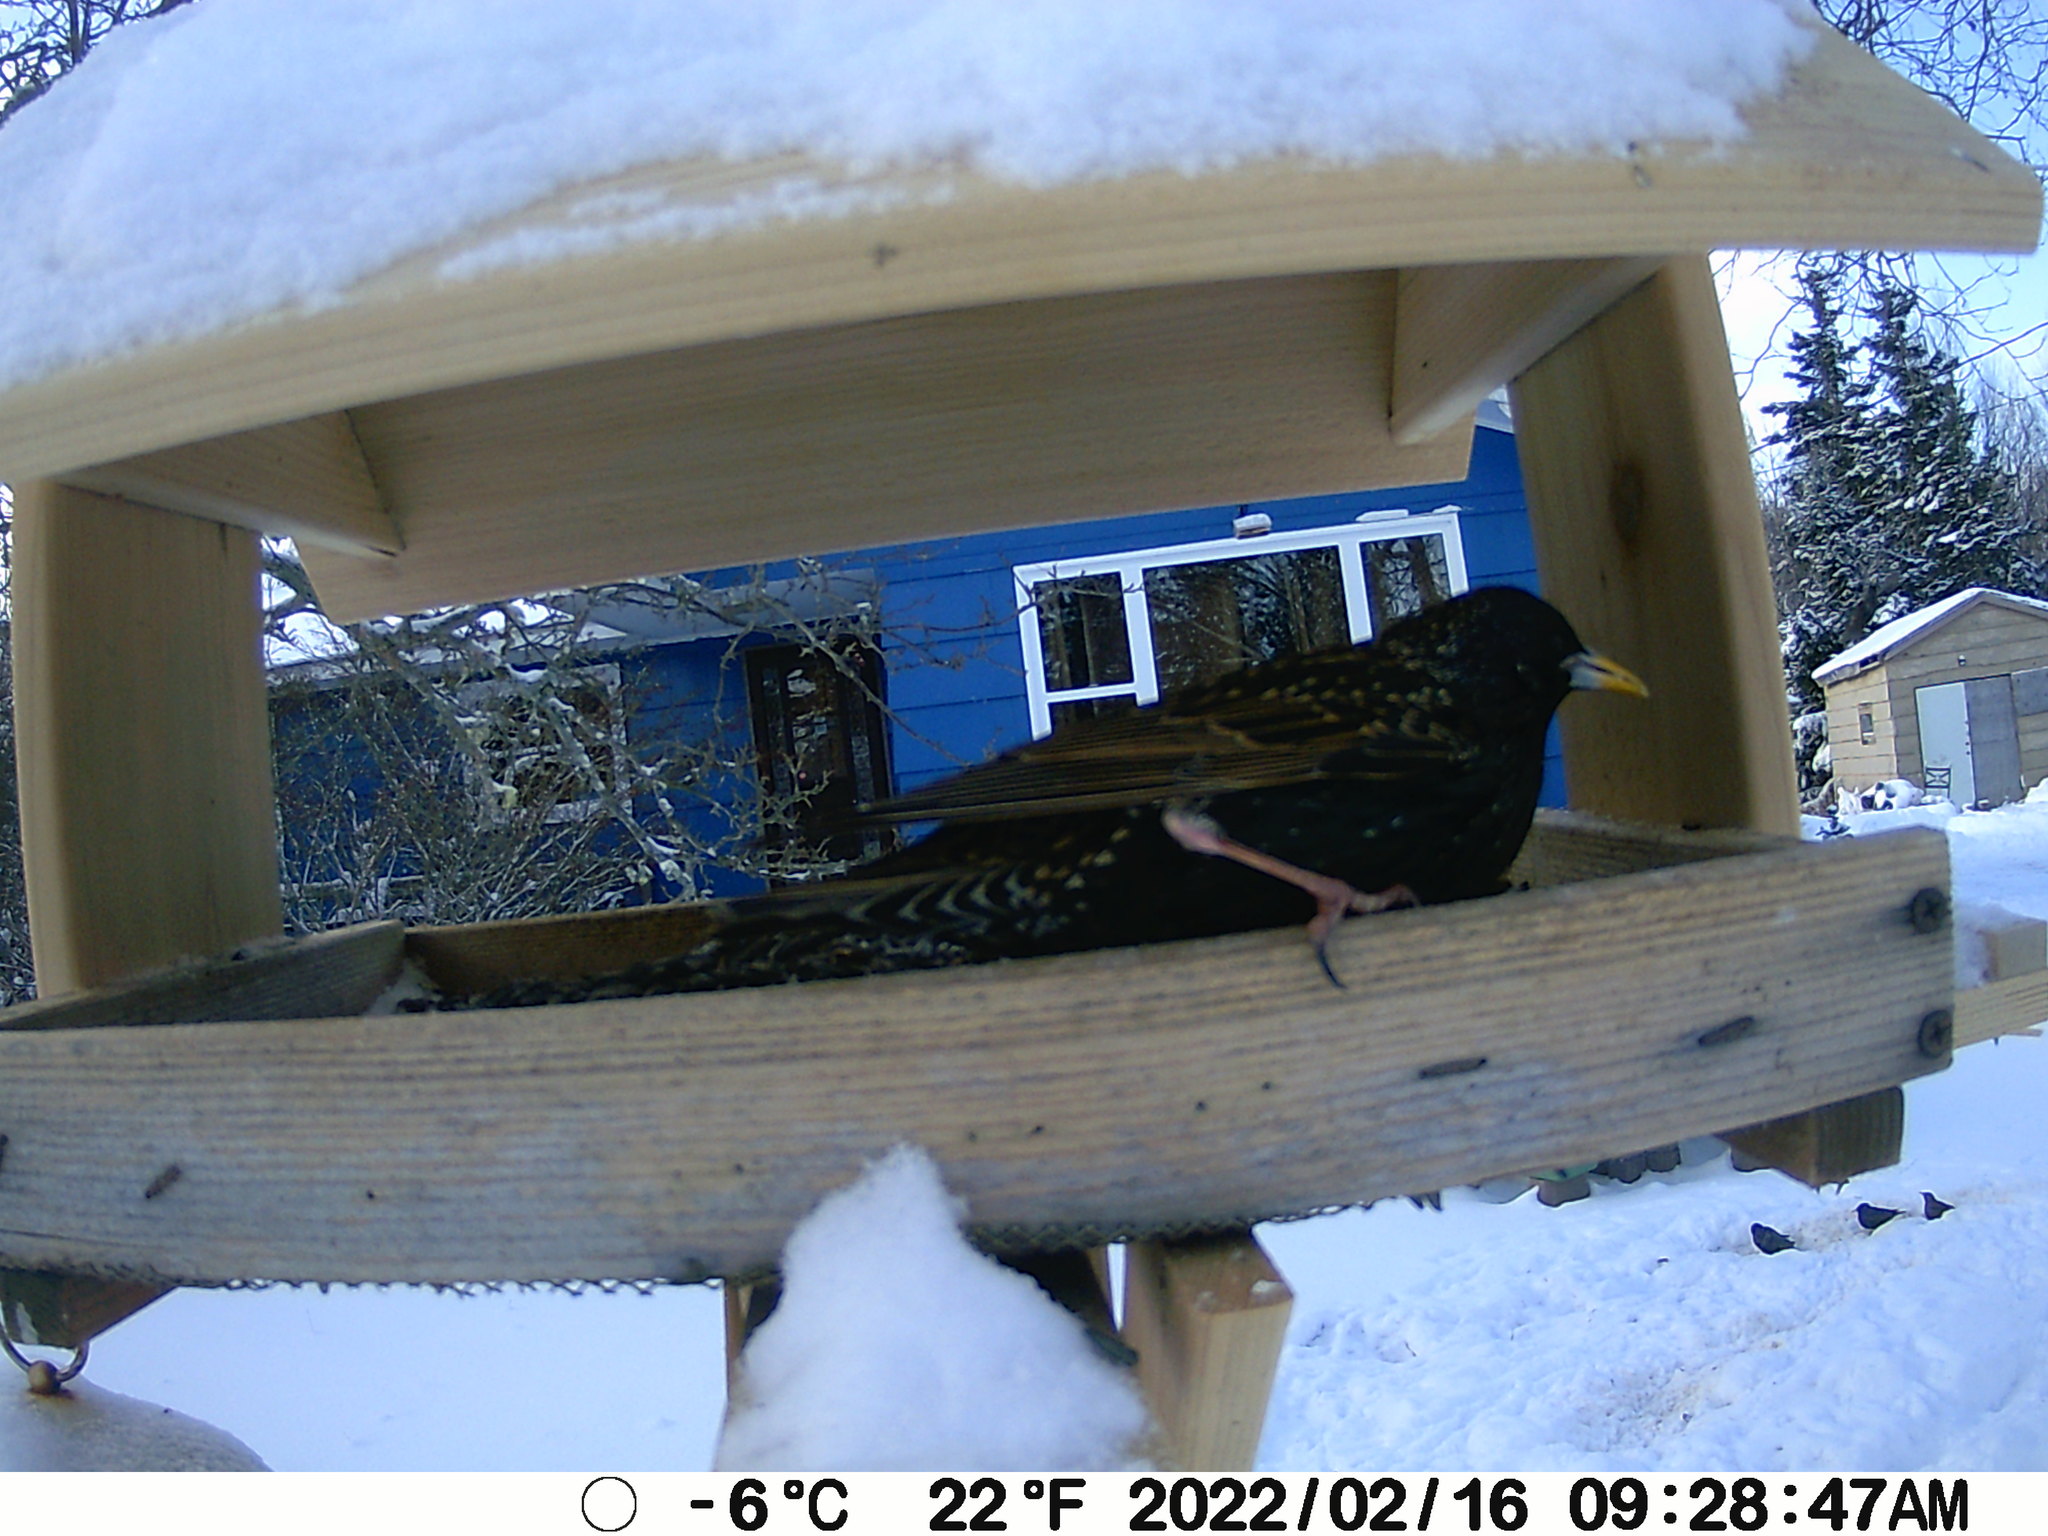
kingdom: Animalia
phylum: Chordata
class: Aves
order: Passeriformes
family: Sturnidae
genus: Sturnus
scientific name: Sturnus vulgaris
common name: Common starling
